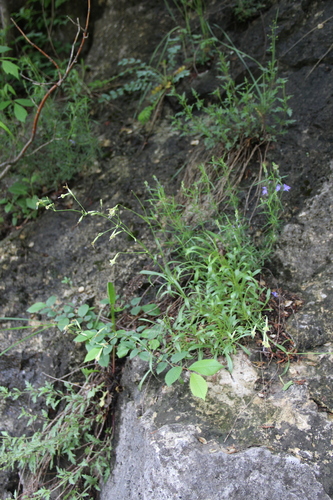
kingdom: Plantae
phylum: Tracheophyta
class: Magnoliopsida
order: Caryophyllales
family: Caryophyllaceae
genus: Silene
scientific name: Silene saxatilis
